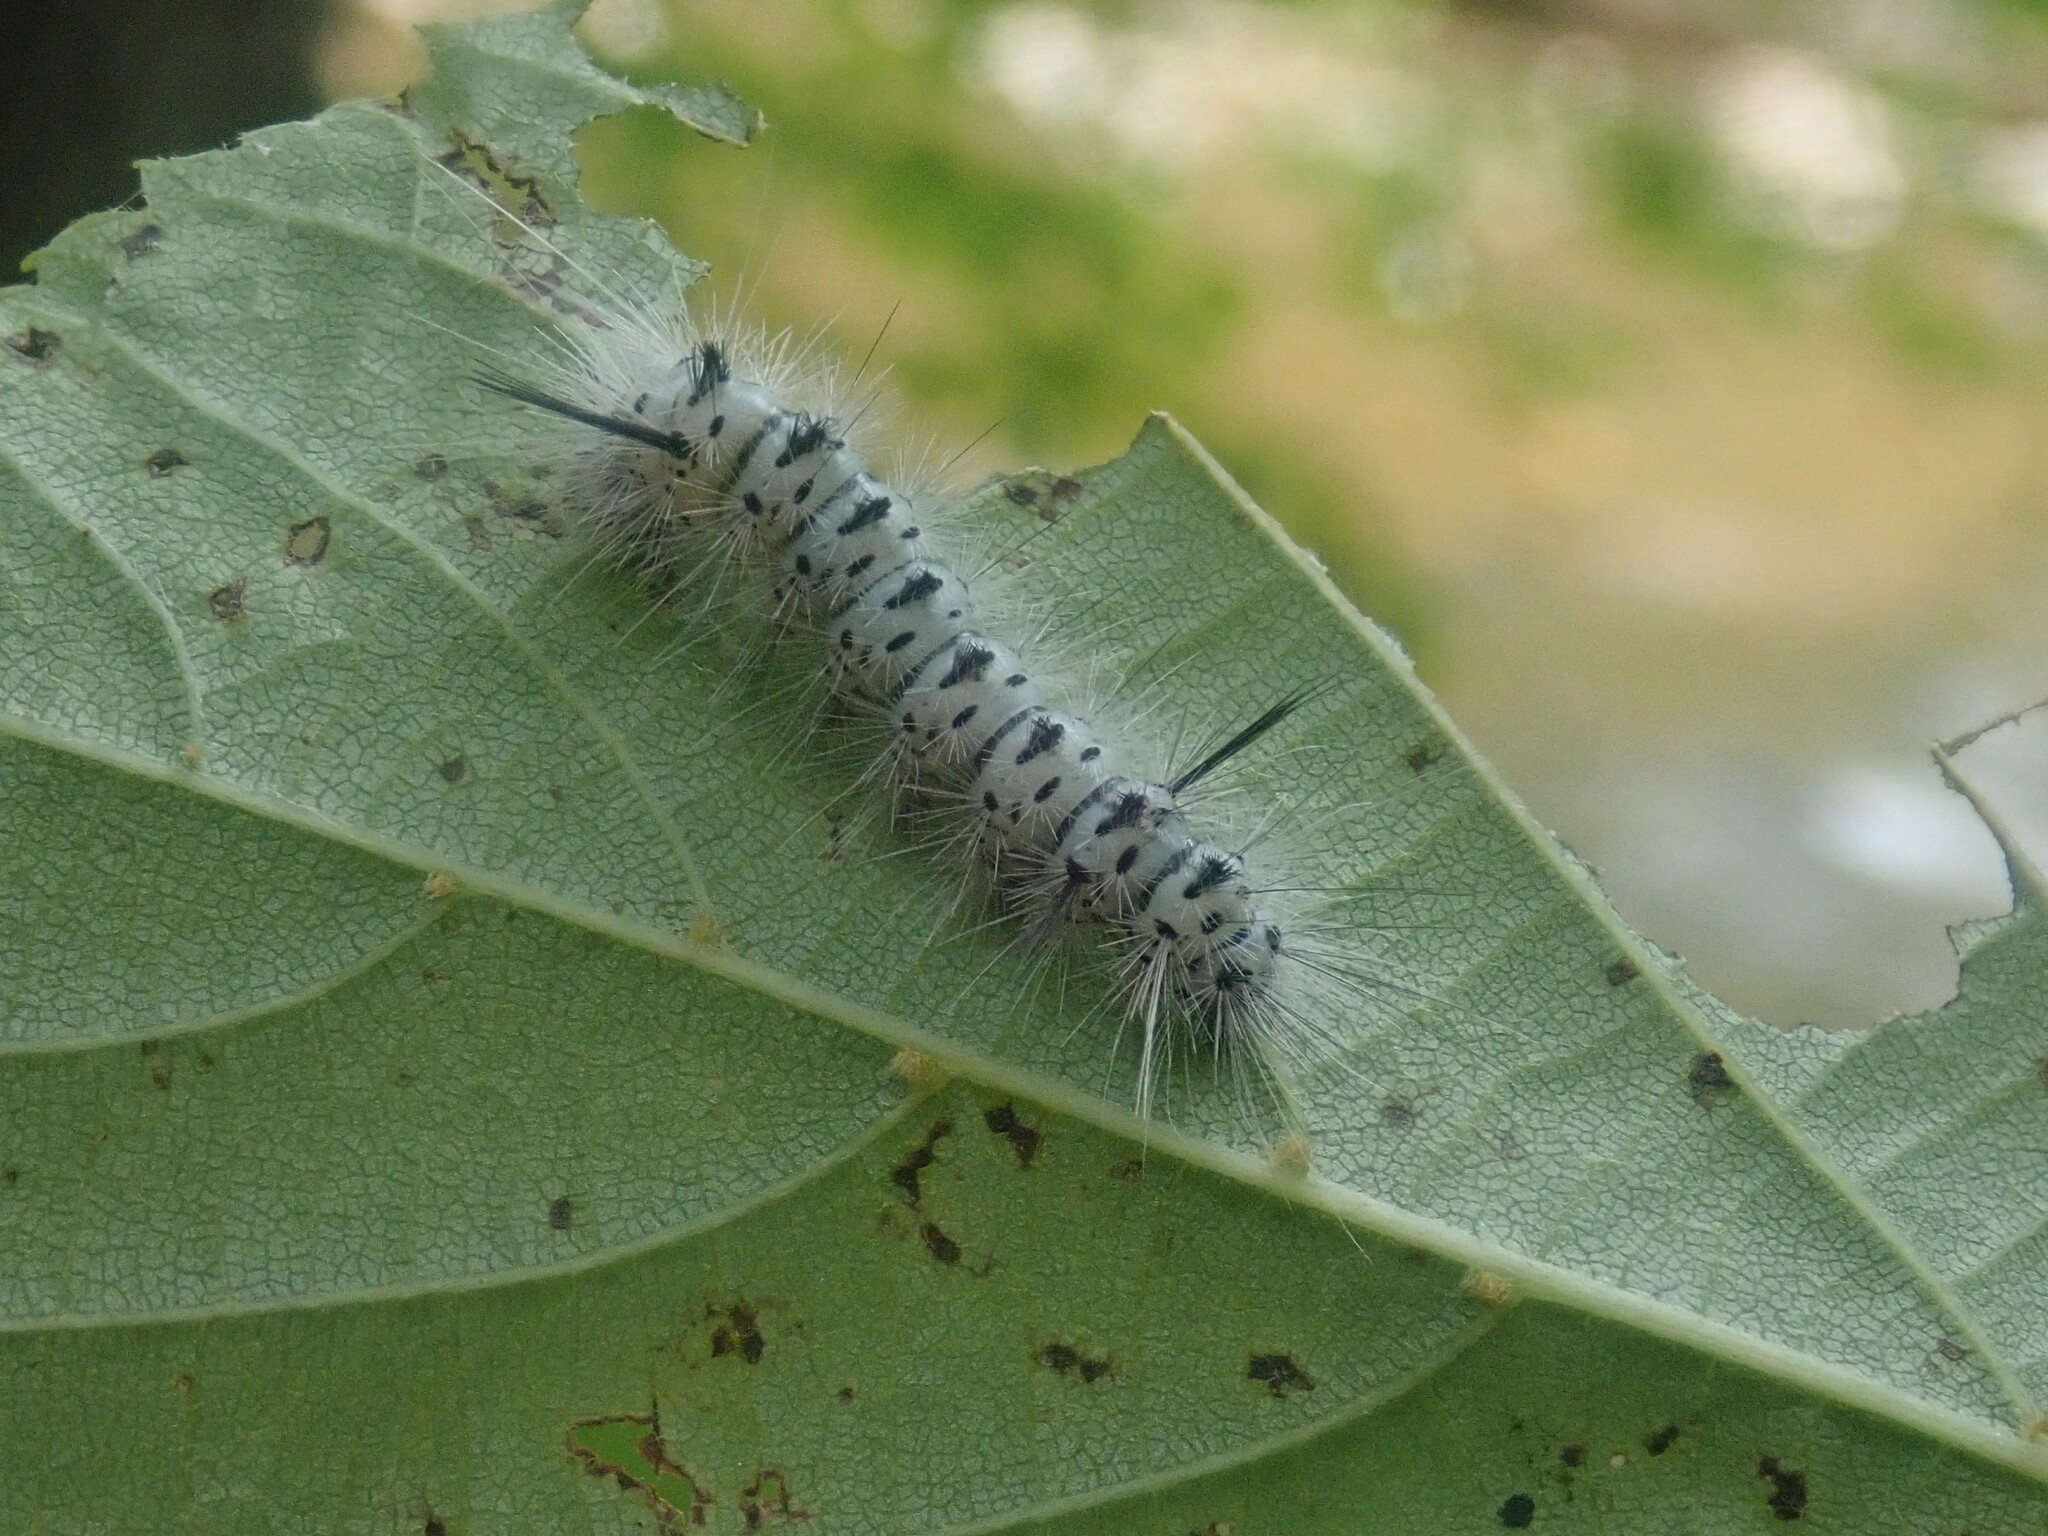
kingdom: Animalia
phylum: Arthropoda
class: Insecta
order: Lepidoptera
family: Erebidae
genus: Lophocampa
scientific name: Lophocampa caryae
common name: Hickory tussock moth
